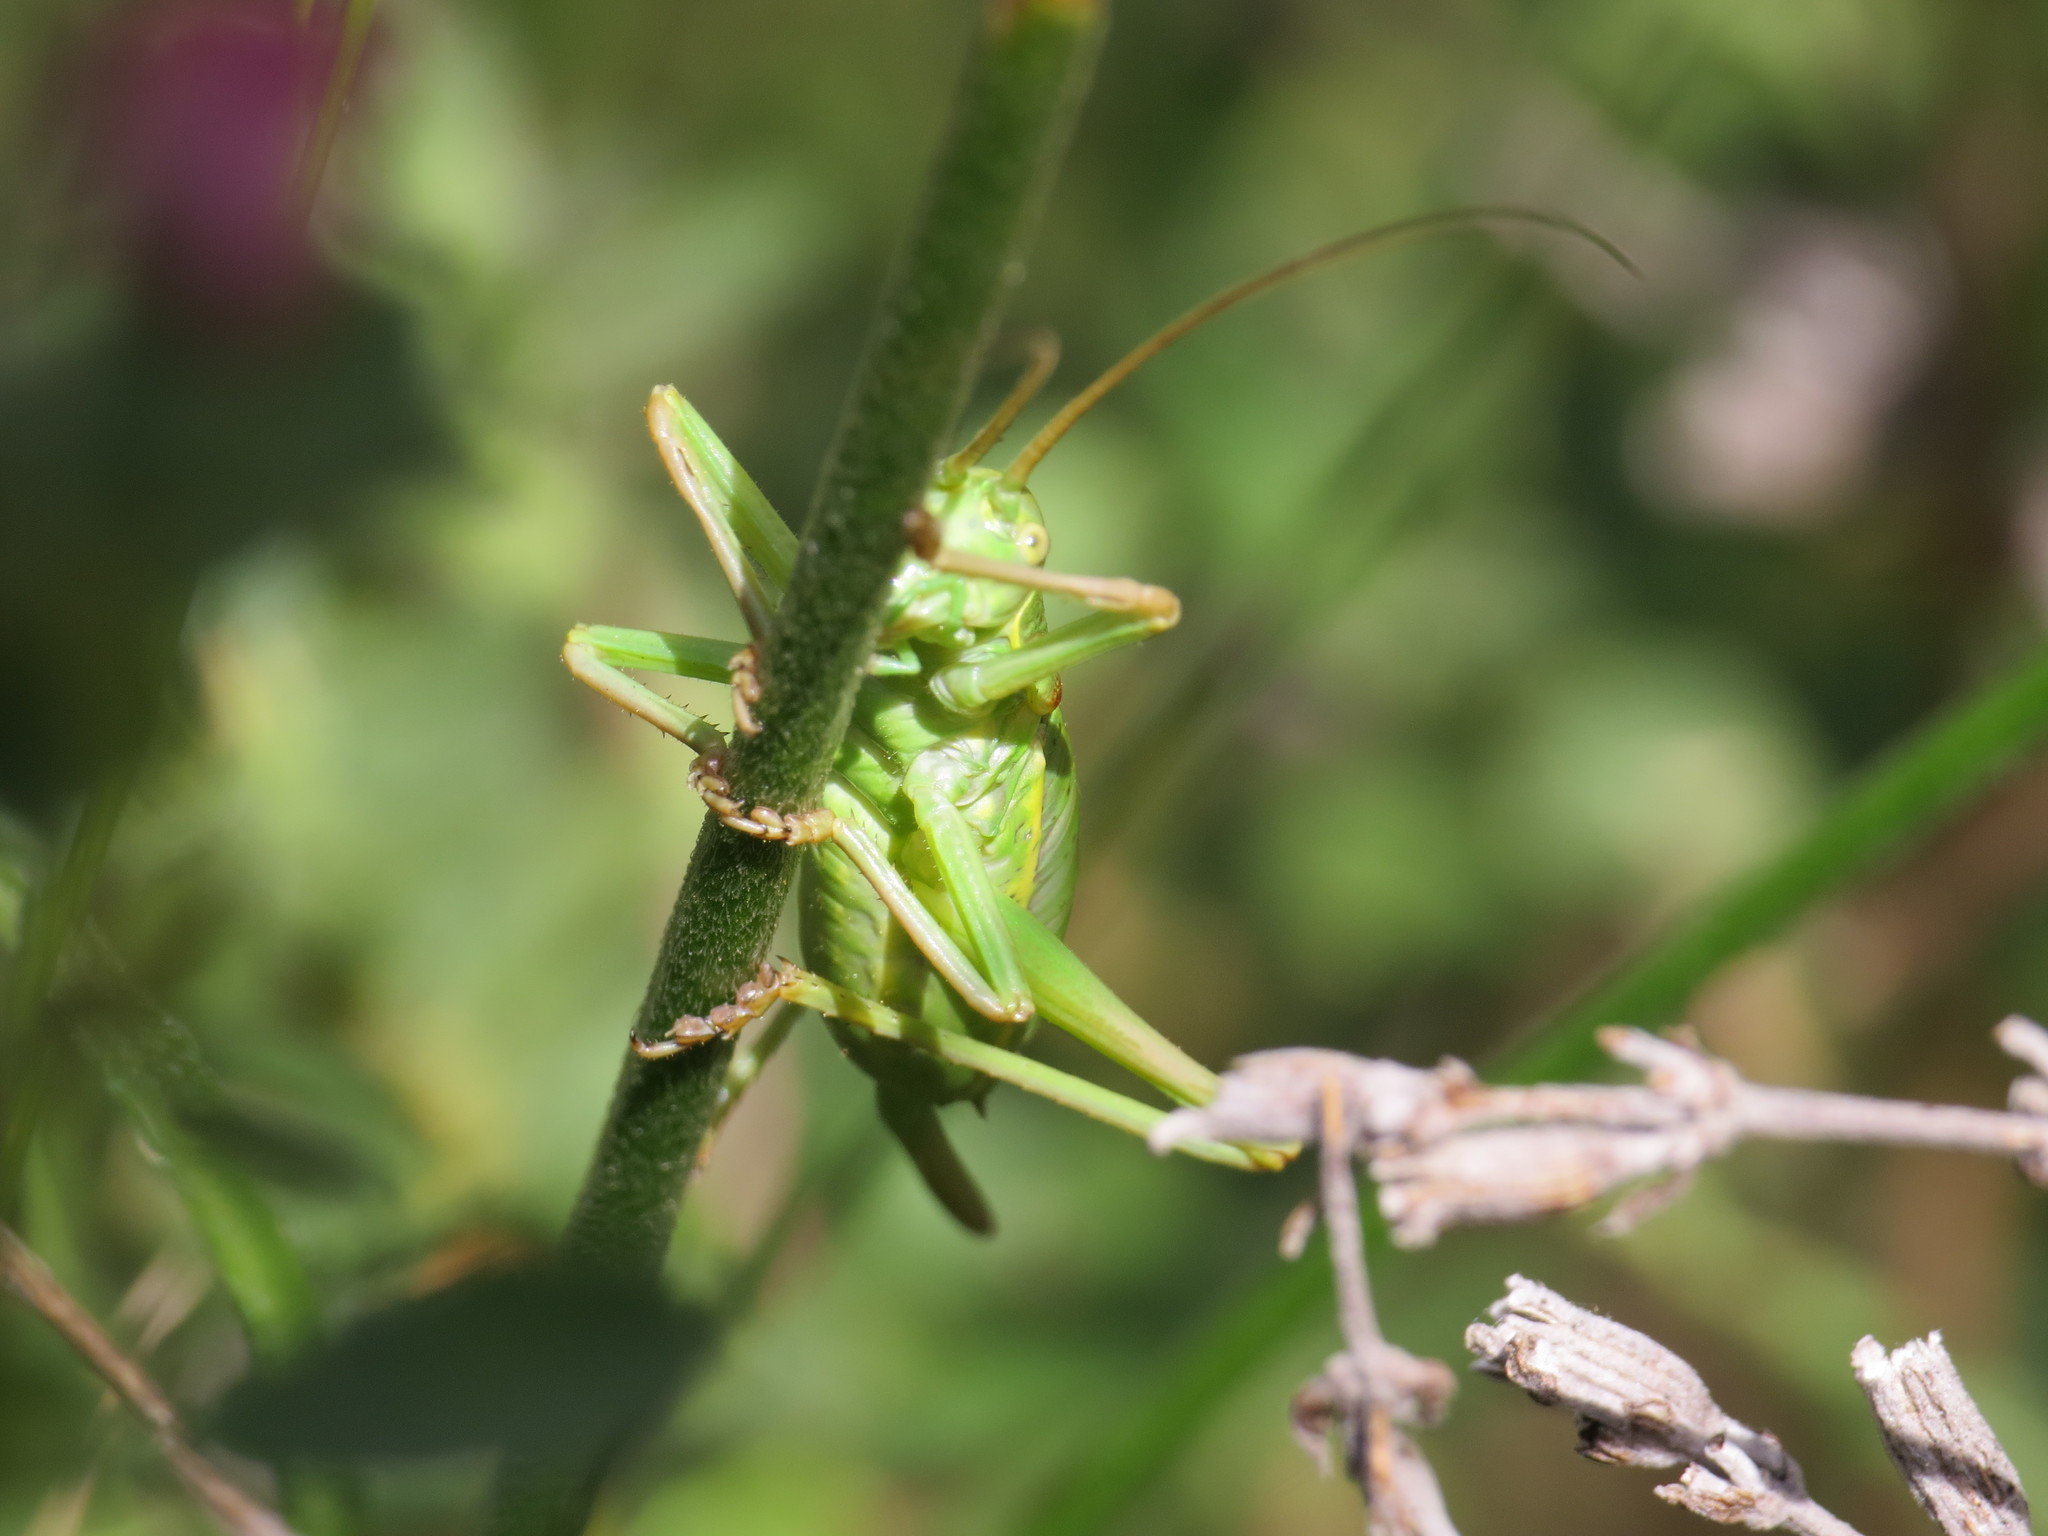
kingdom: Animalia
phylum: Arthropoda
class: Insecta
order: Orthoptera
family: Tettigoniidae
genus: Ephippiger
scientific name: Ephippiger diurnus
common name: Western saddle bush-cricket
